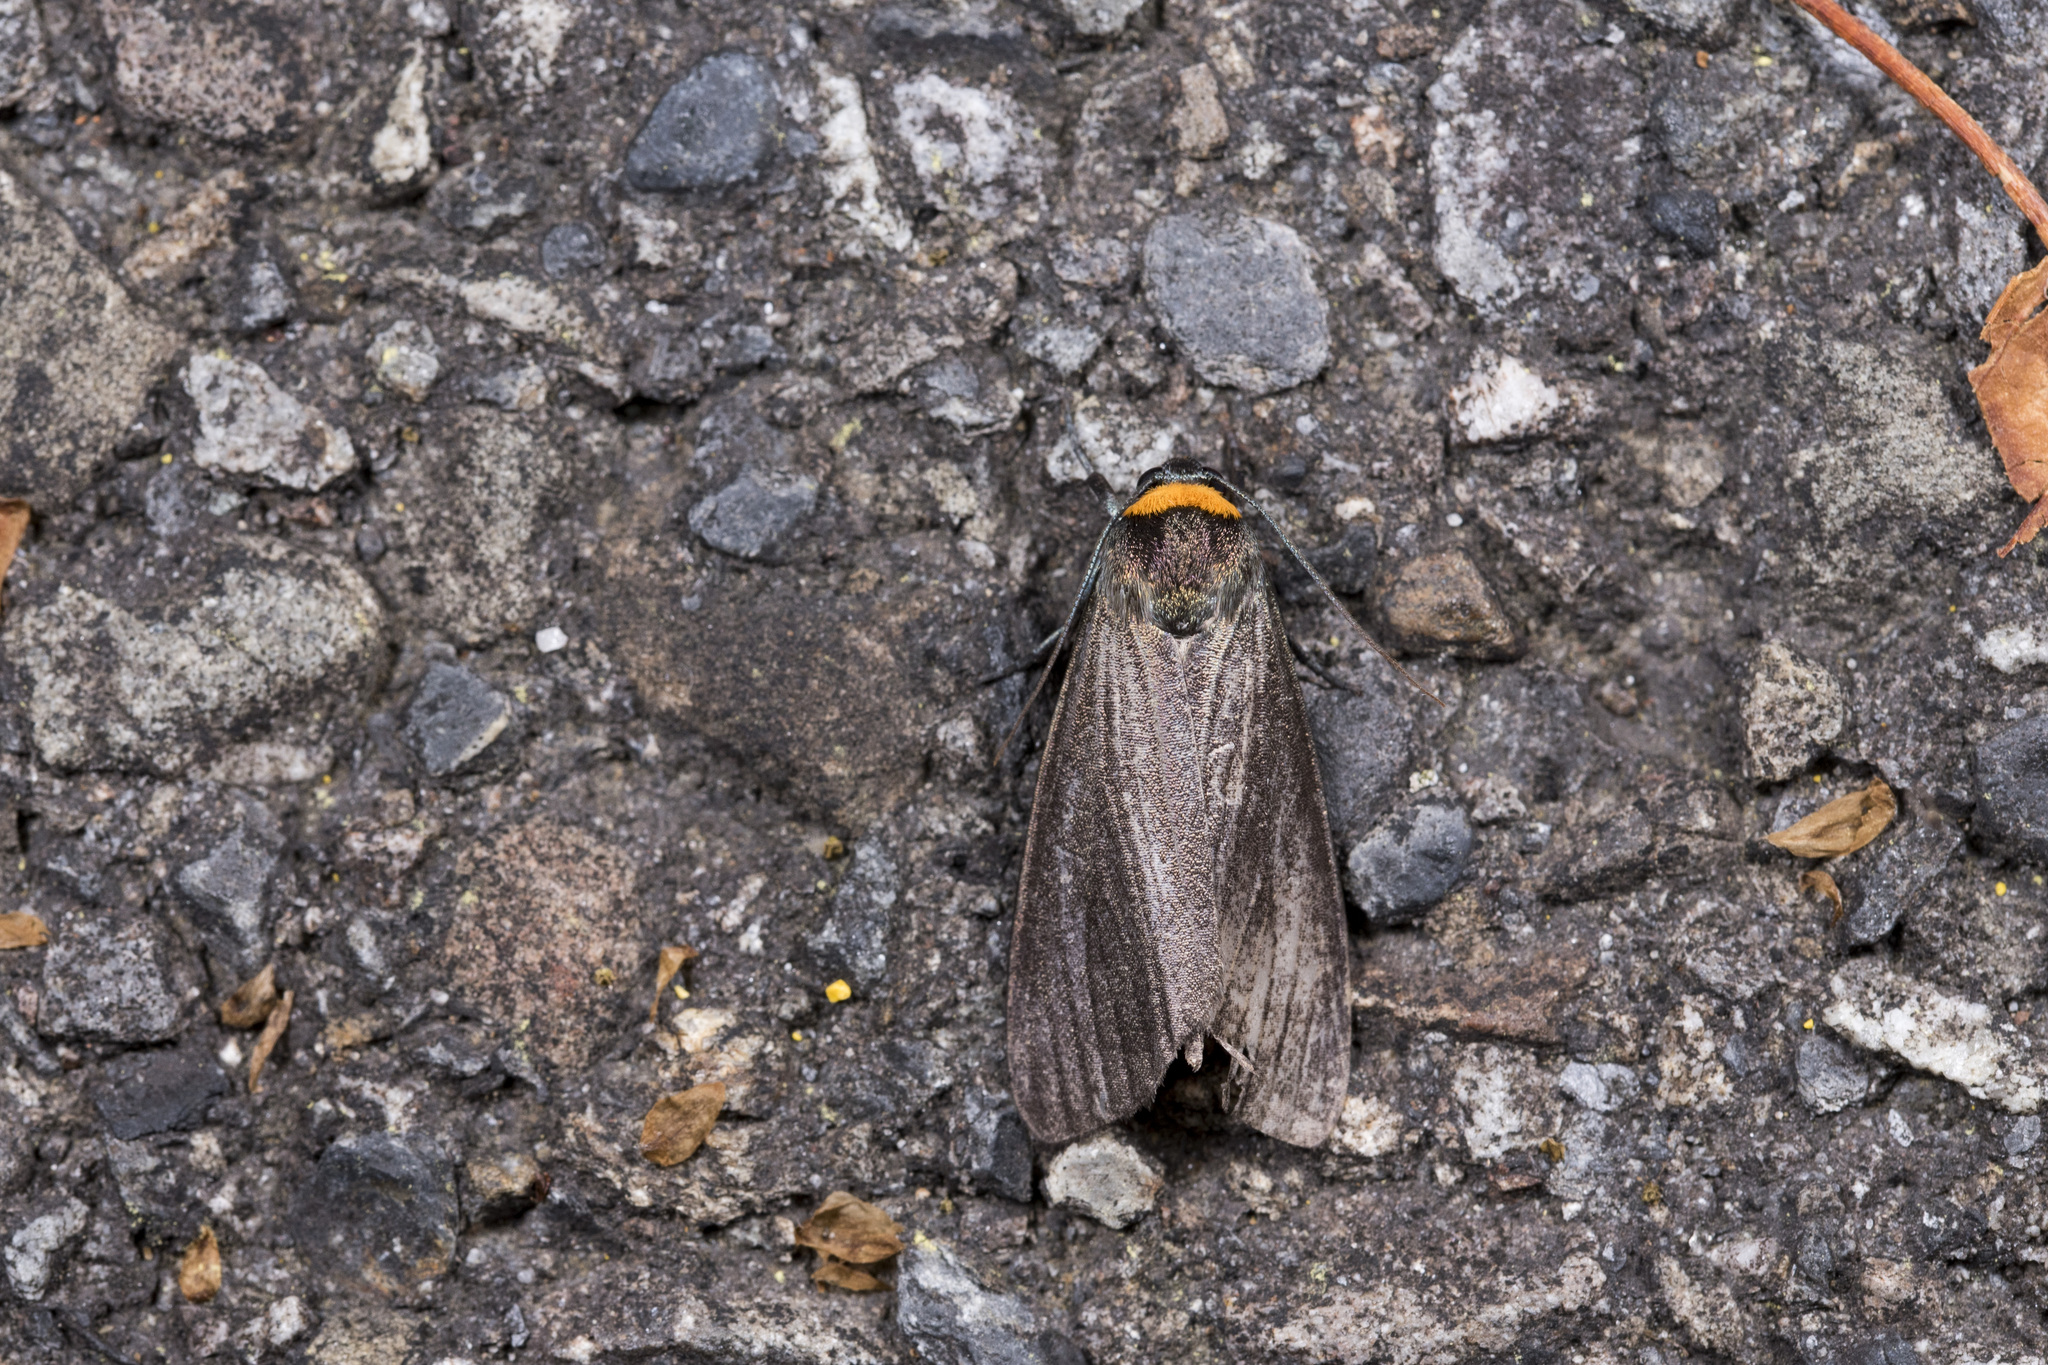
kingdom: Animalia
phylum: Arthropoda
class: Insecta
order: Lepidoptera
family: Erebidae
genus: Macrobrochis
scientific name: Macrobrochis staudingeri
